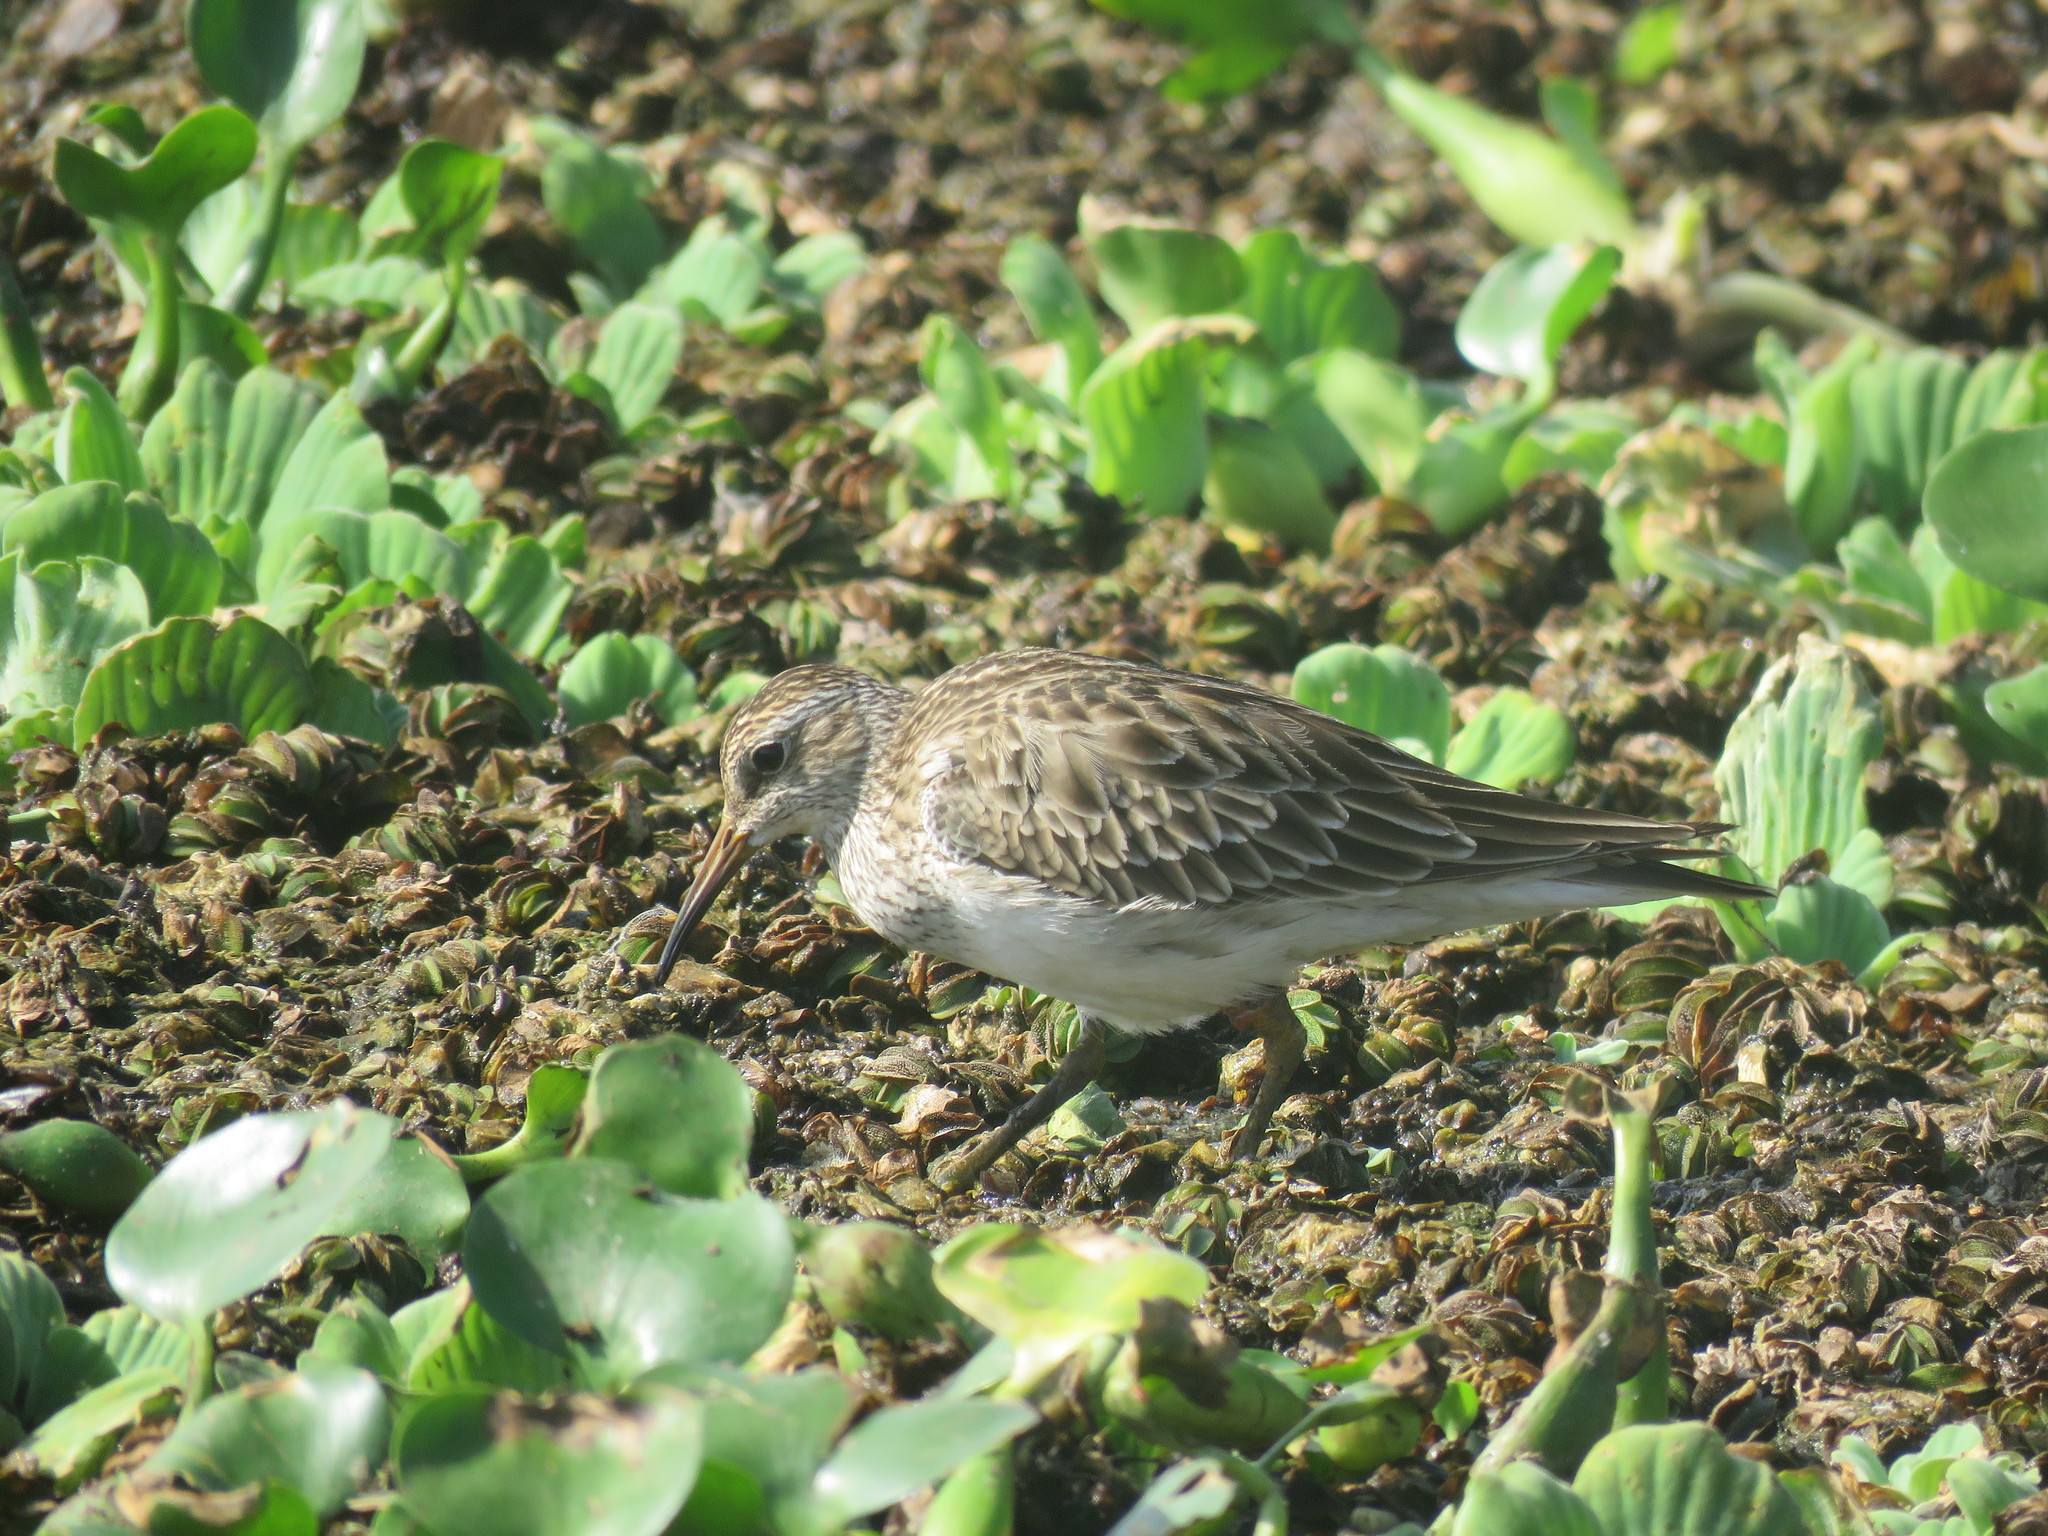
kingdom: Animalia
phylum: Chordata
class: Aves
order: Charadriiformes
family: Scolopacidae
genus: Calidris
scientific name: Calidris melanotos
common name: Pectoral sandpiper
